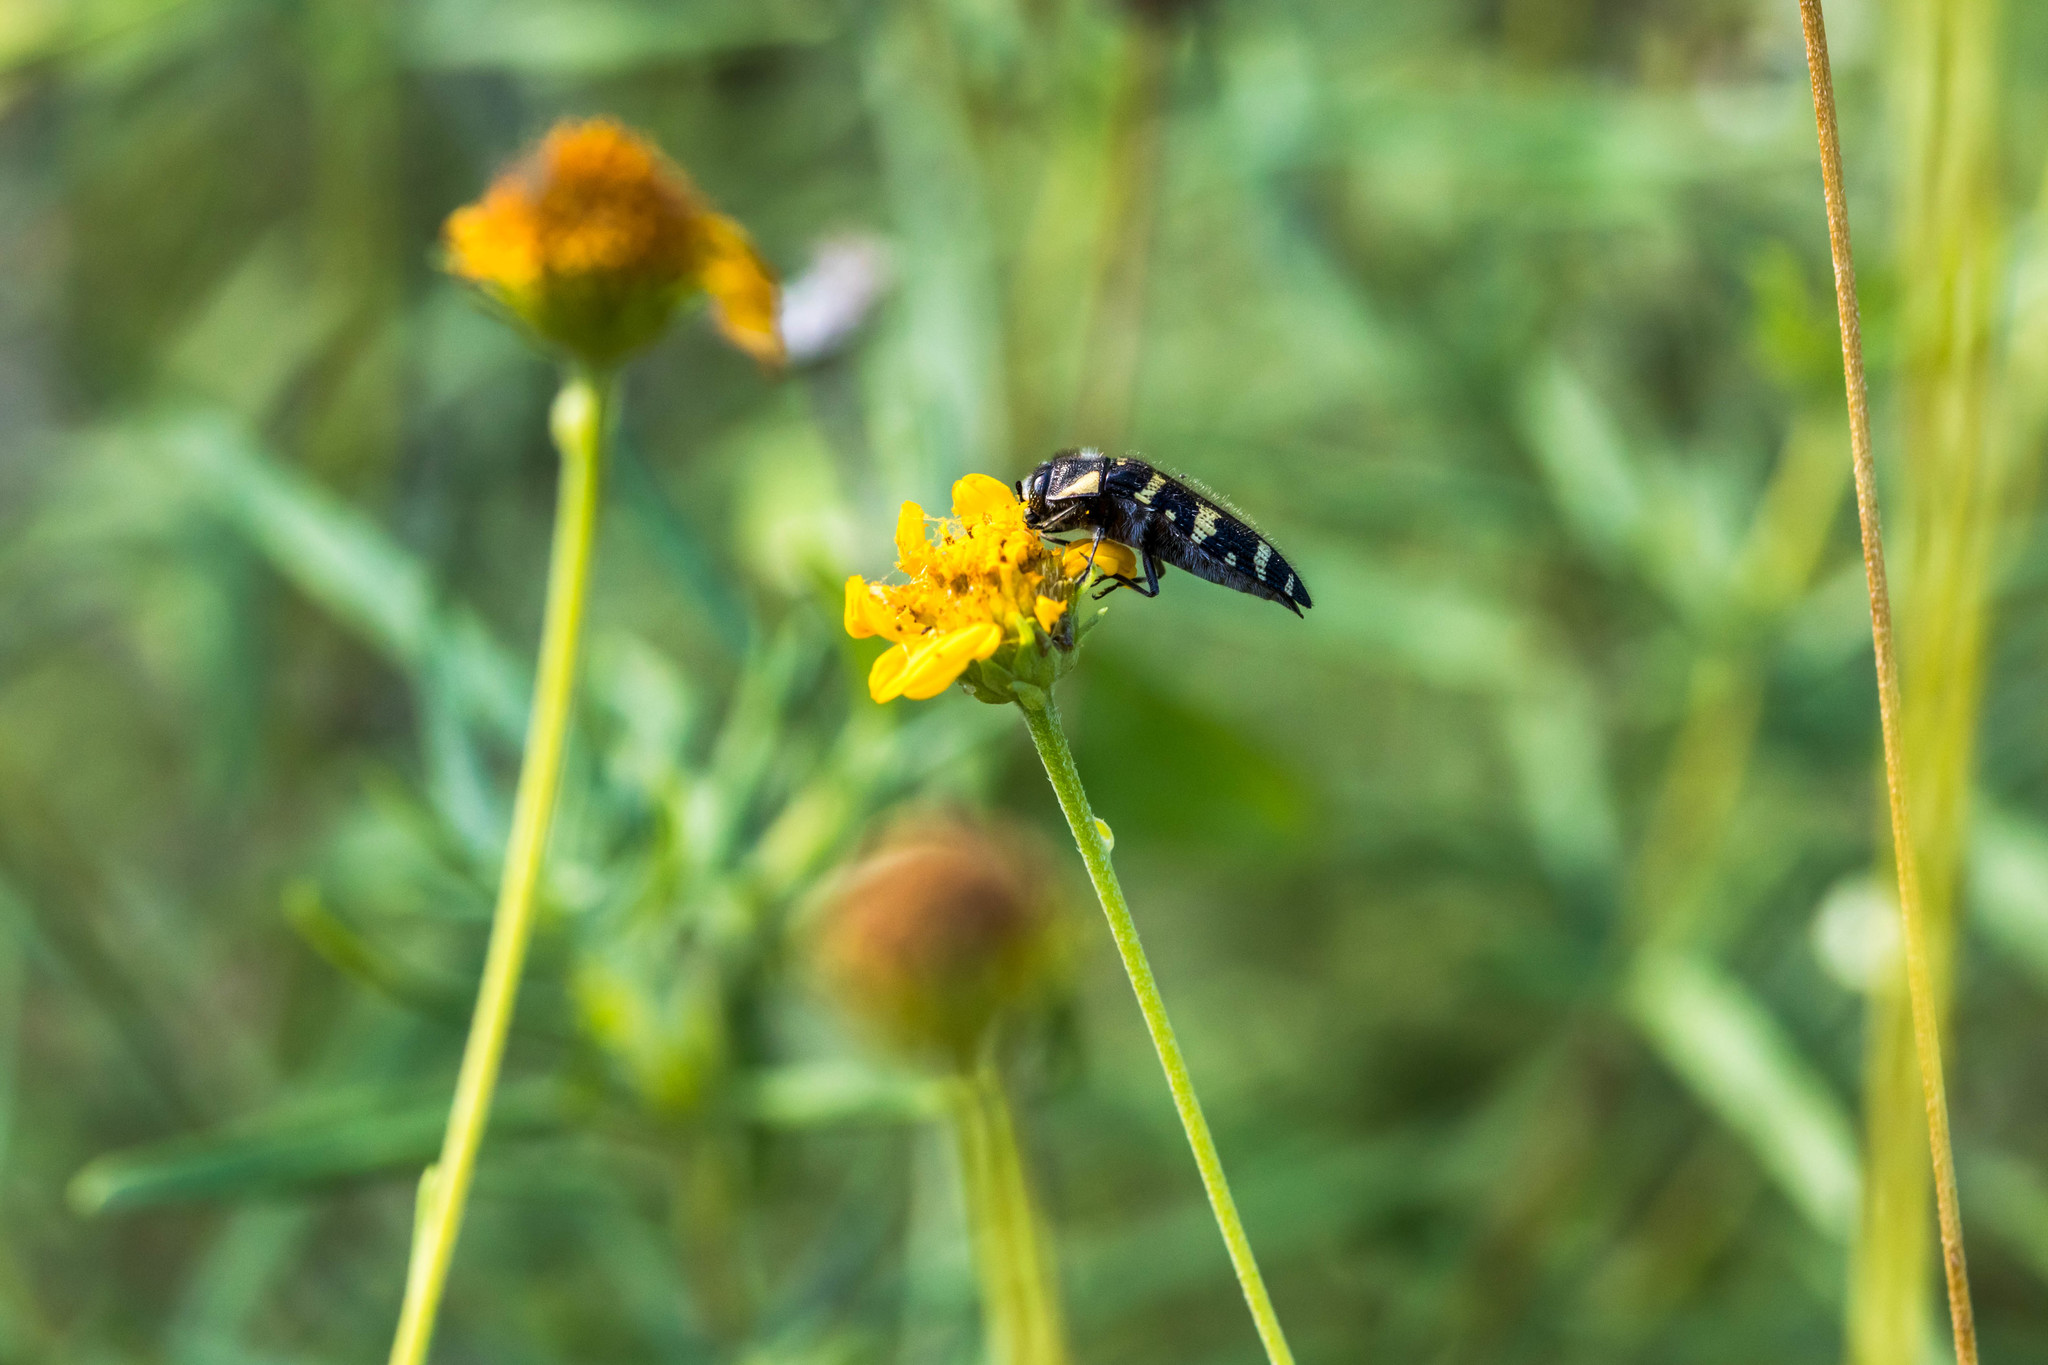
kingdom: Animalia
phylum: Arthropoda
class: Insecta
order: Coleoptera
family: Buprestidae
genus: Acmaeodera
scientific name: Acmaeodera macra
